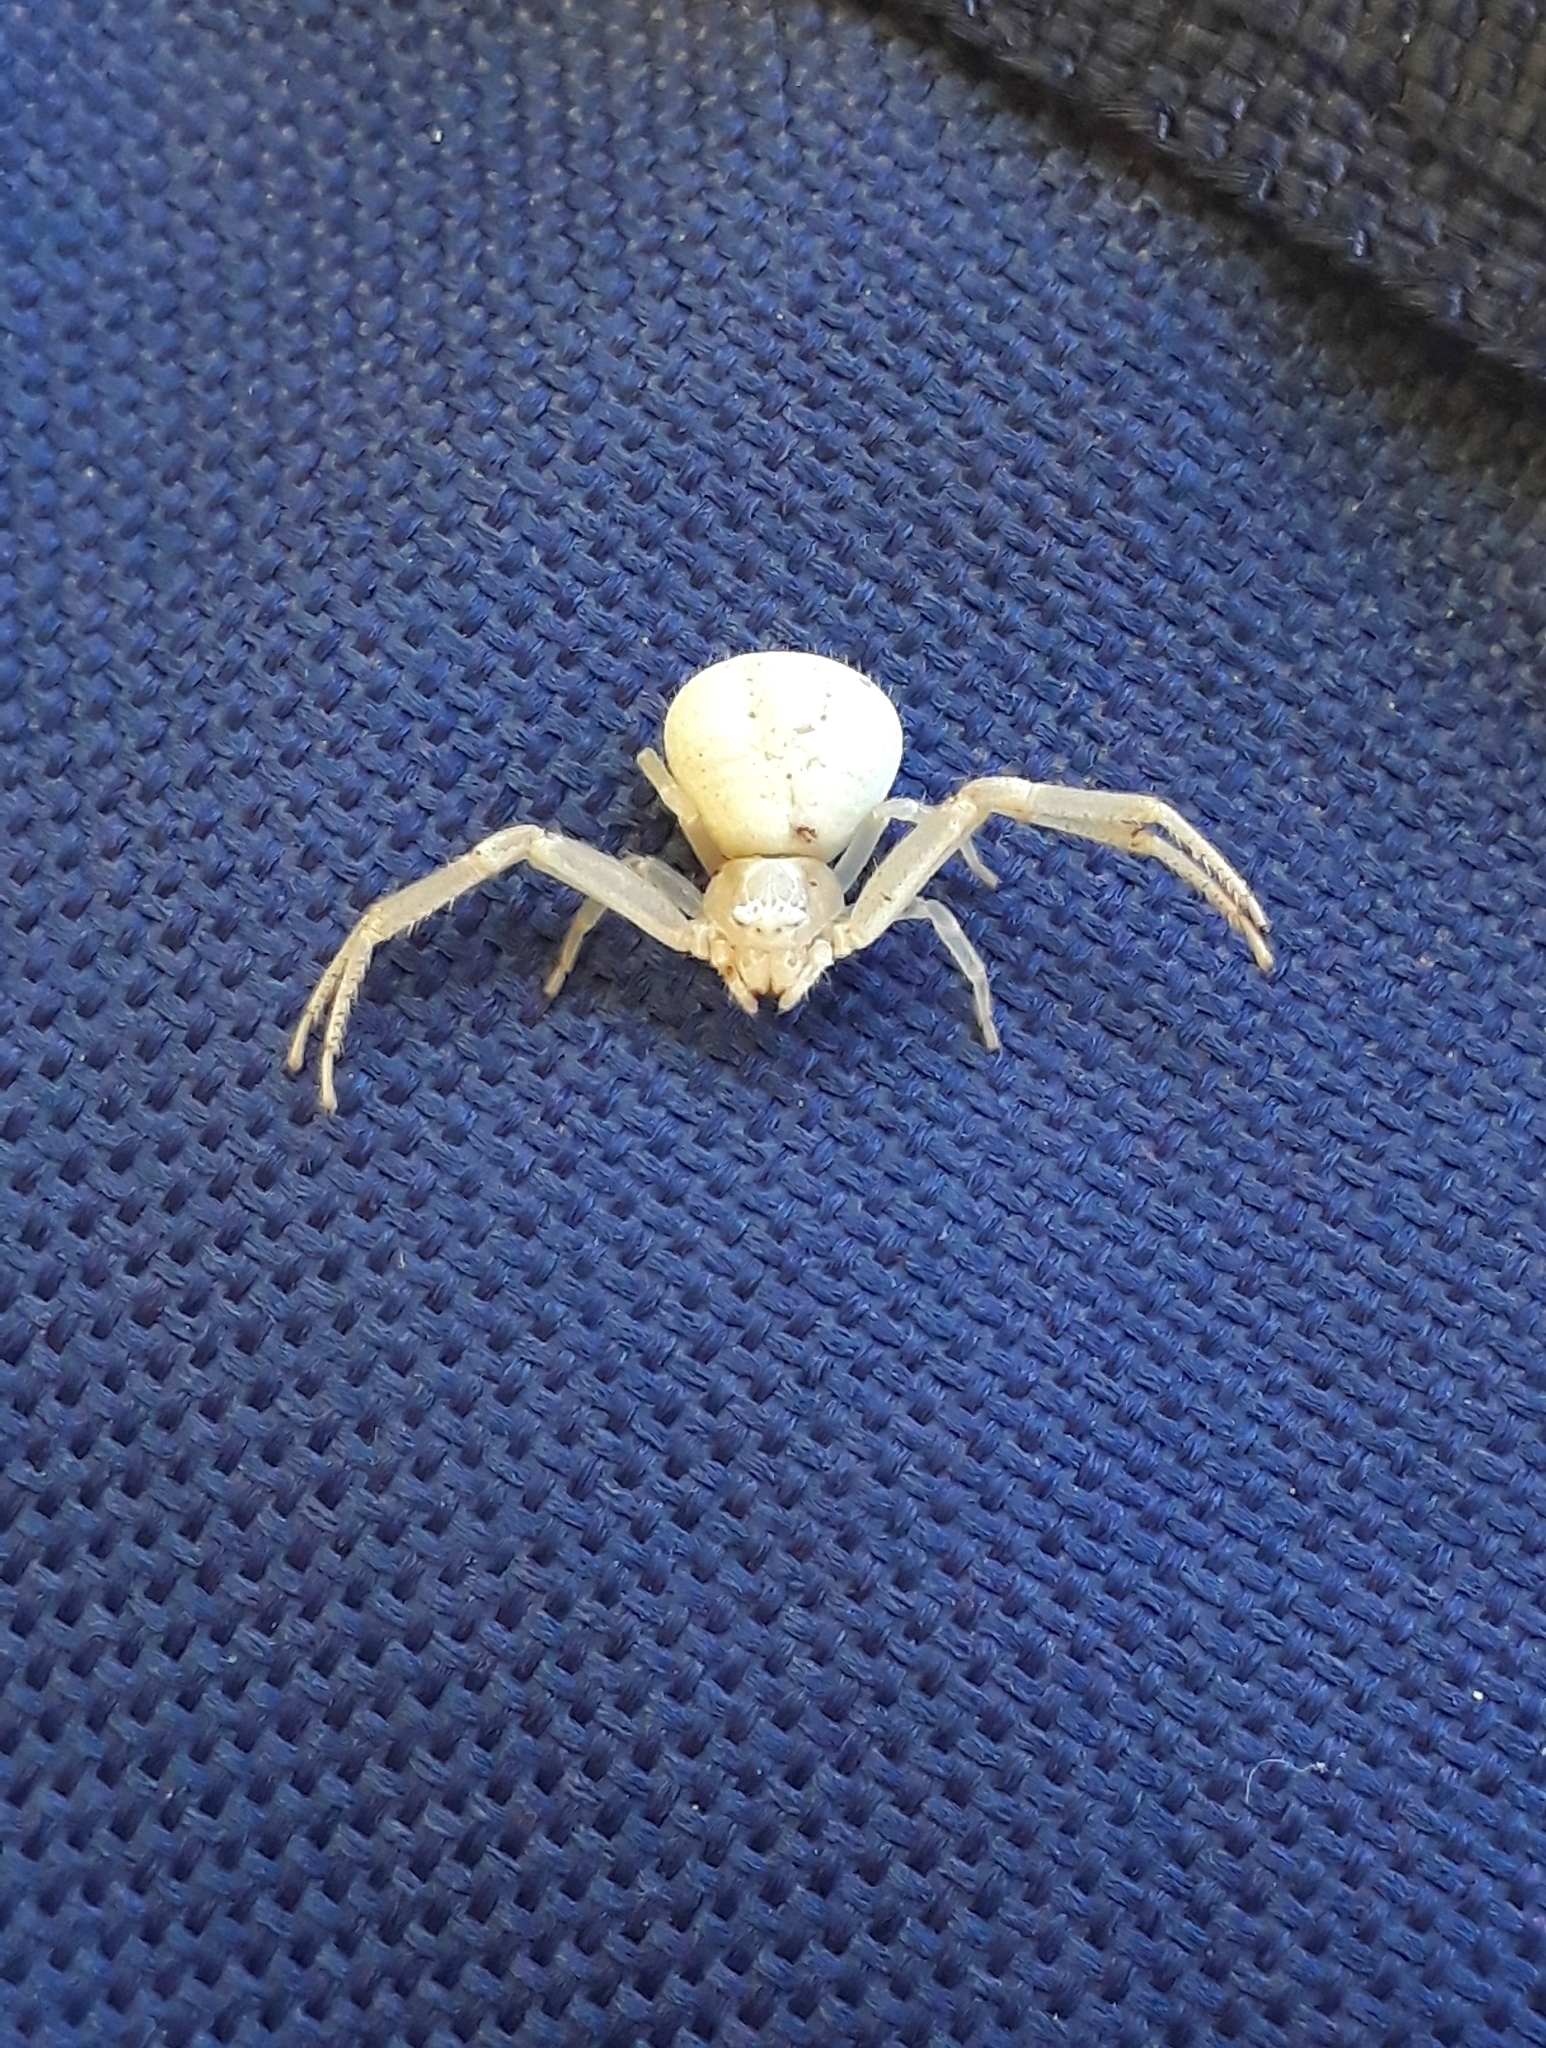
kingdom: Animalia
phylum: Arthropoda
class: Arachnida
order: Araneae
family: Thomisidae
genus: Misumenops
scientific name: Misumenops
